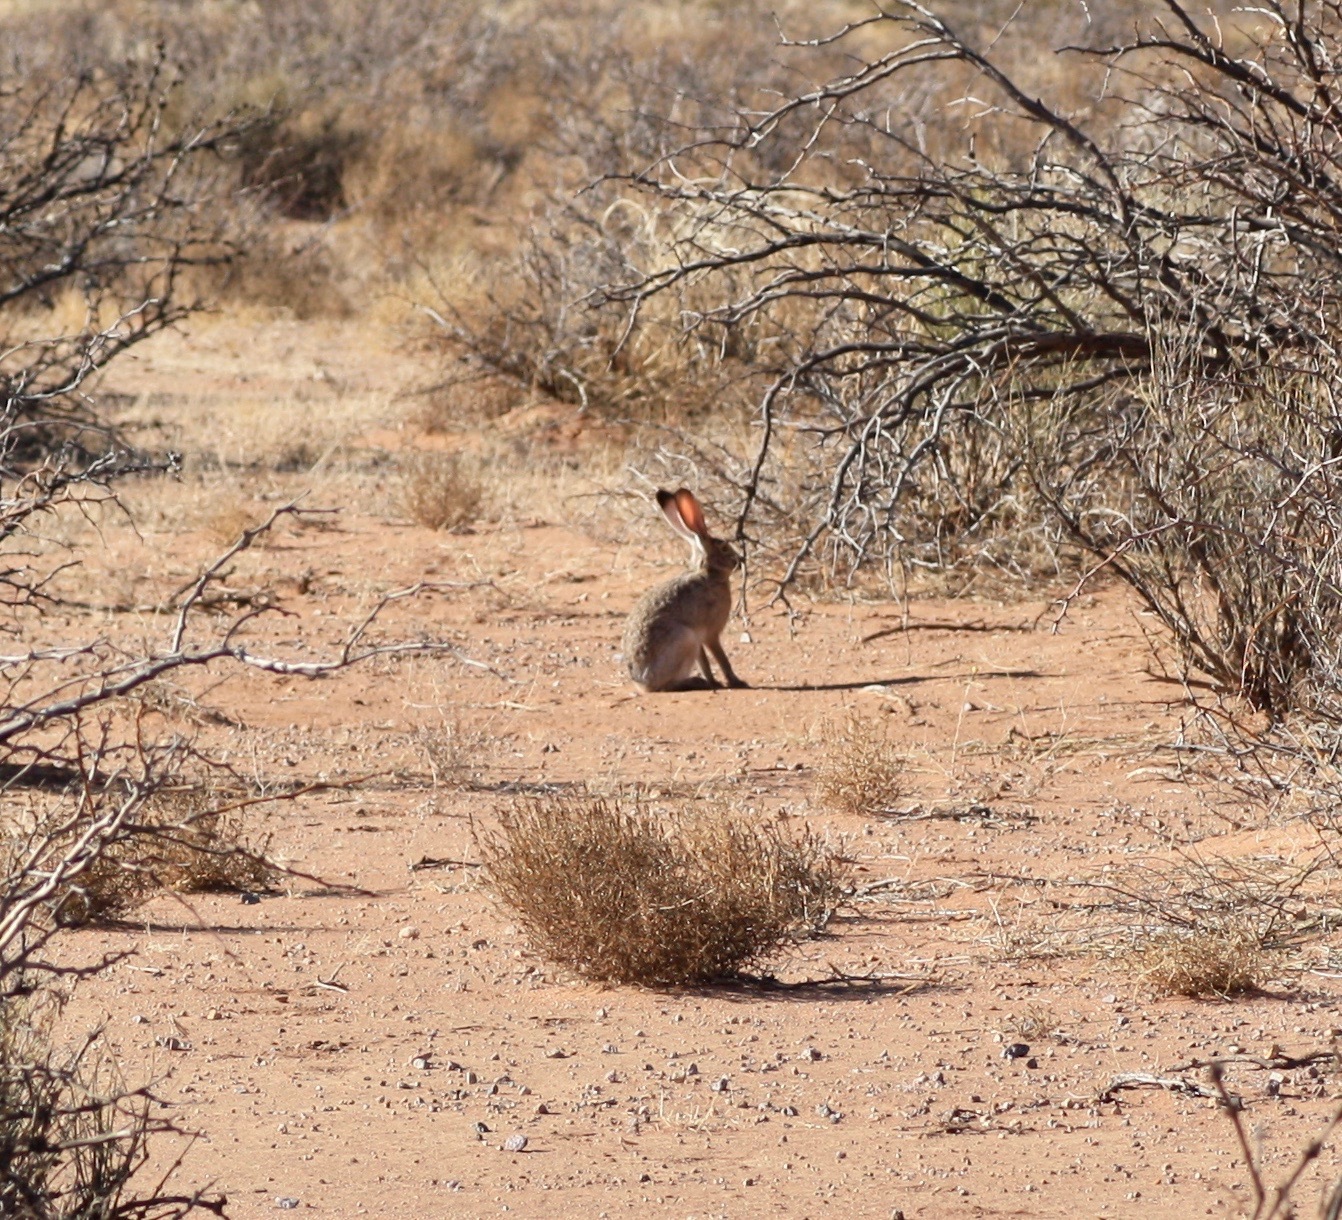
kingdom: Animalia
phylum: Chordata
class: Mammalia
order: Lagomorpha
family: Leporidae
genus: Lepus
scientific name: Lepus californicus
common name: Black-tailed jackrabbit
